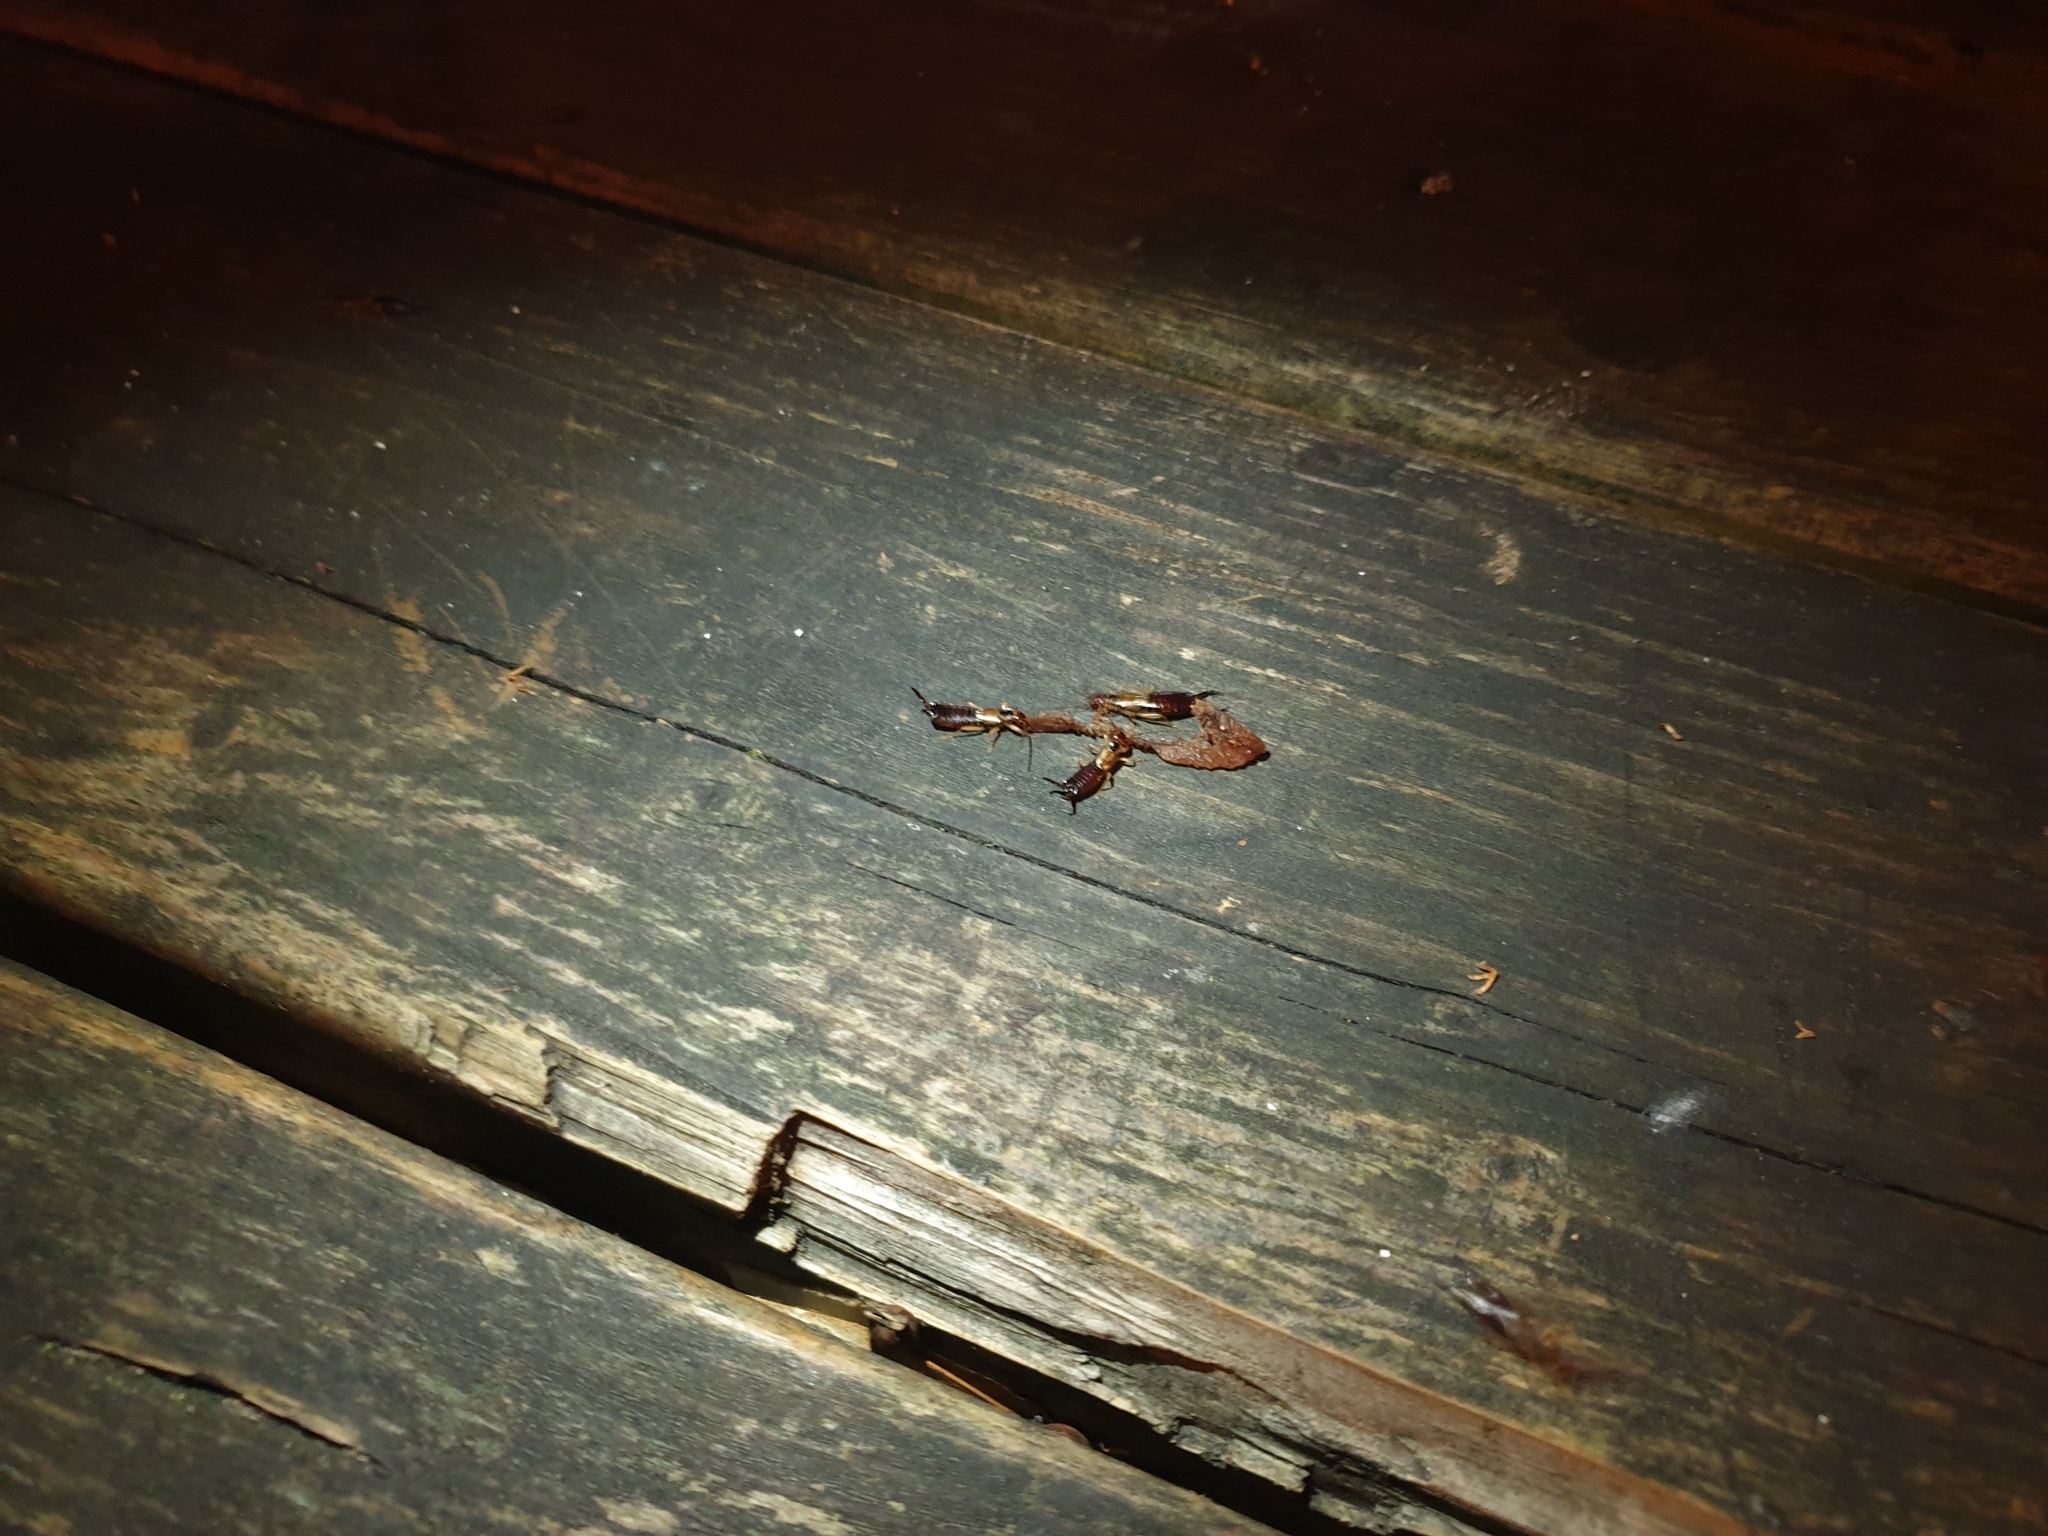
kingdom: Animalia
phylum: Arthropoda
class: Insecta
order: Dermaptera
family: Forficulidae
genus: Forficula
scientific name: Forficula
